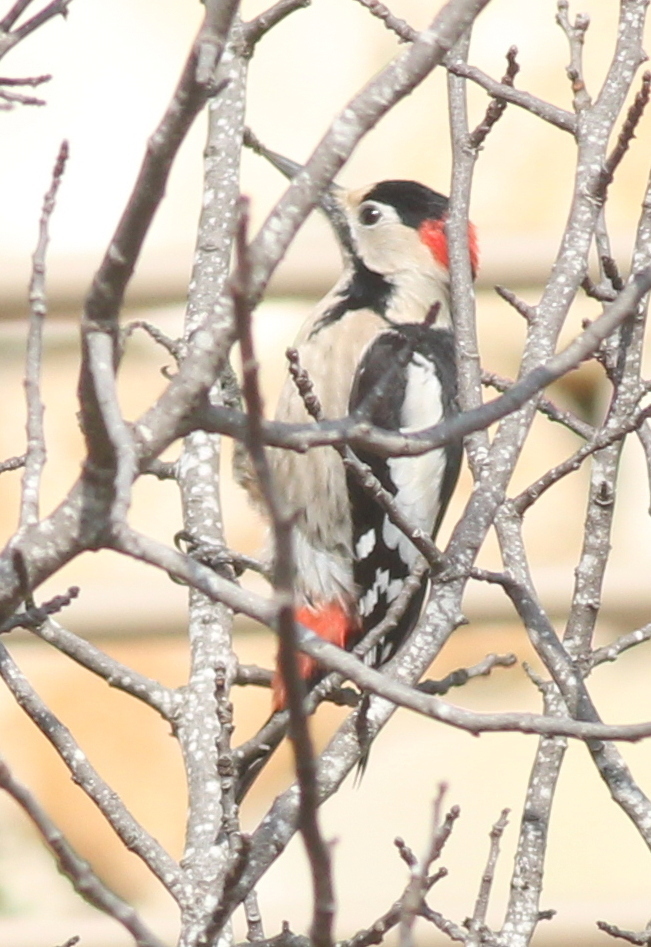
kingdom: Animalia
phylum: Chordata
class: Aves
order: Piciformes
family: Picidae
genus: Dendrocopos
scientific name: Dendrocopos syriacus
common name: Syrian woodpecker
